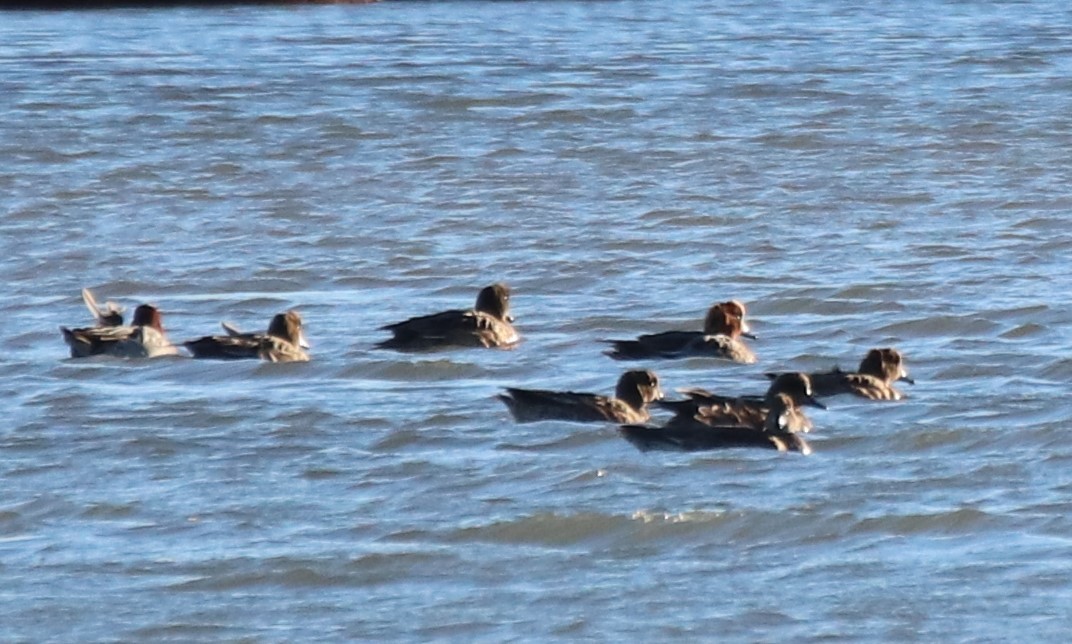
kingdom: Animalia
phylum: Chordata
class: Aves
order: Anseriformes
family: Anatidae
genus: Mareca
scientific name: Mareca penelope
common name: Eurasian wigeon
